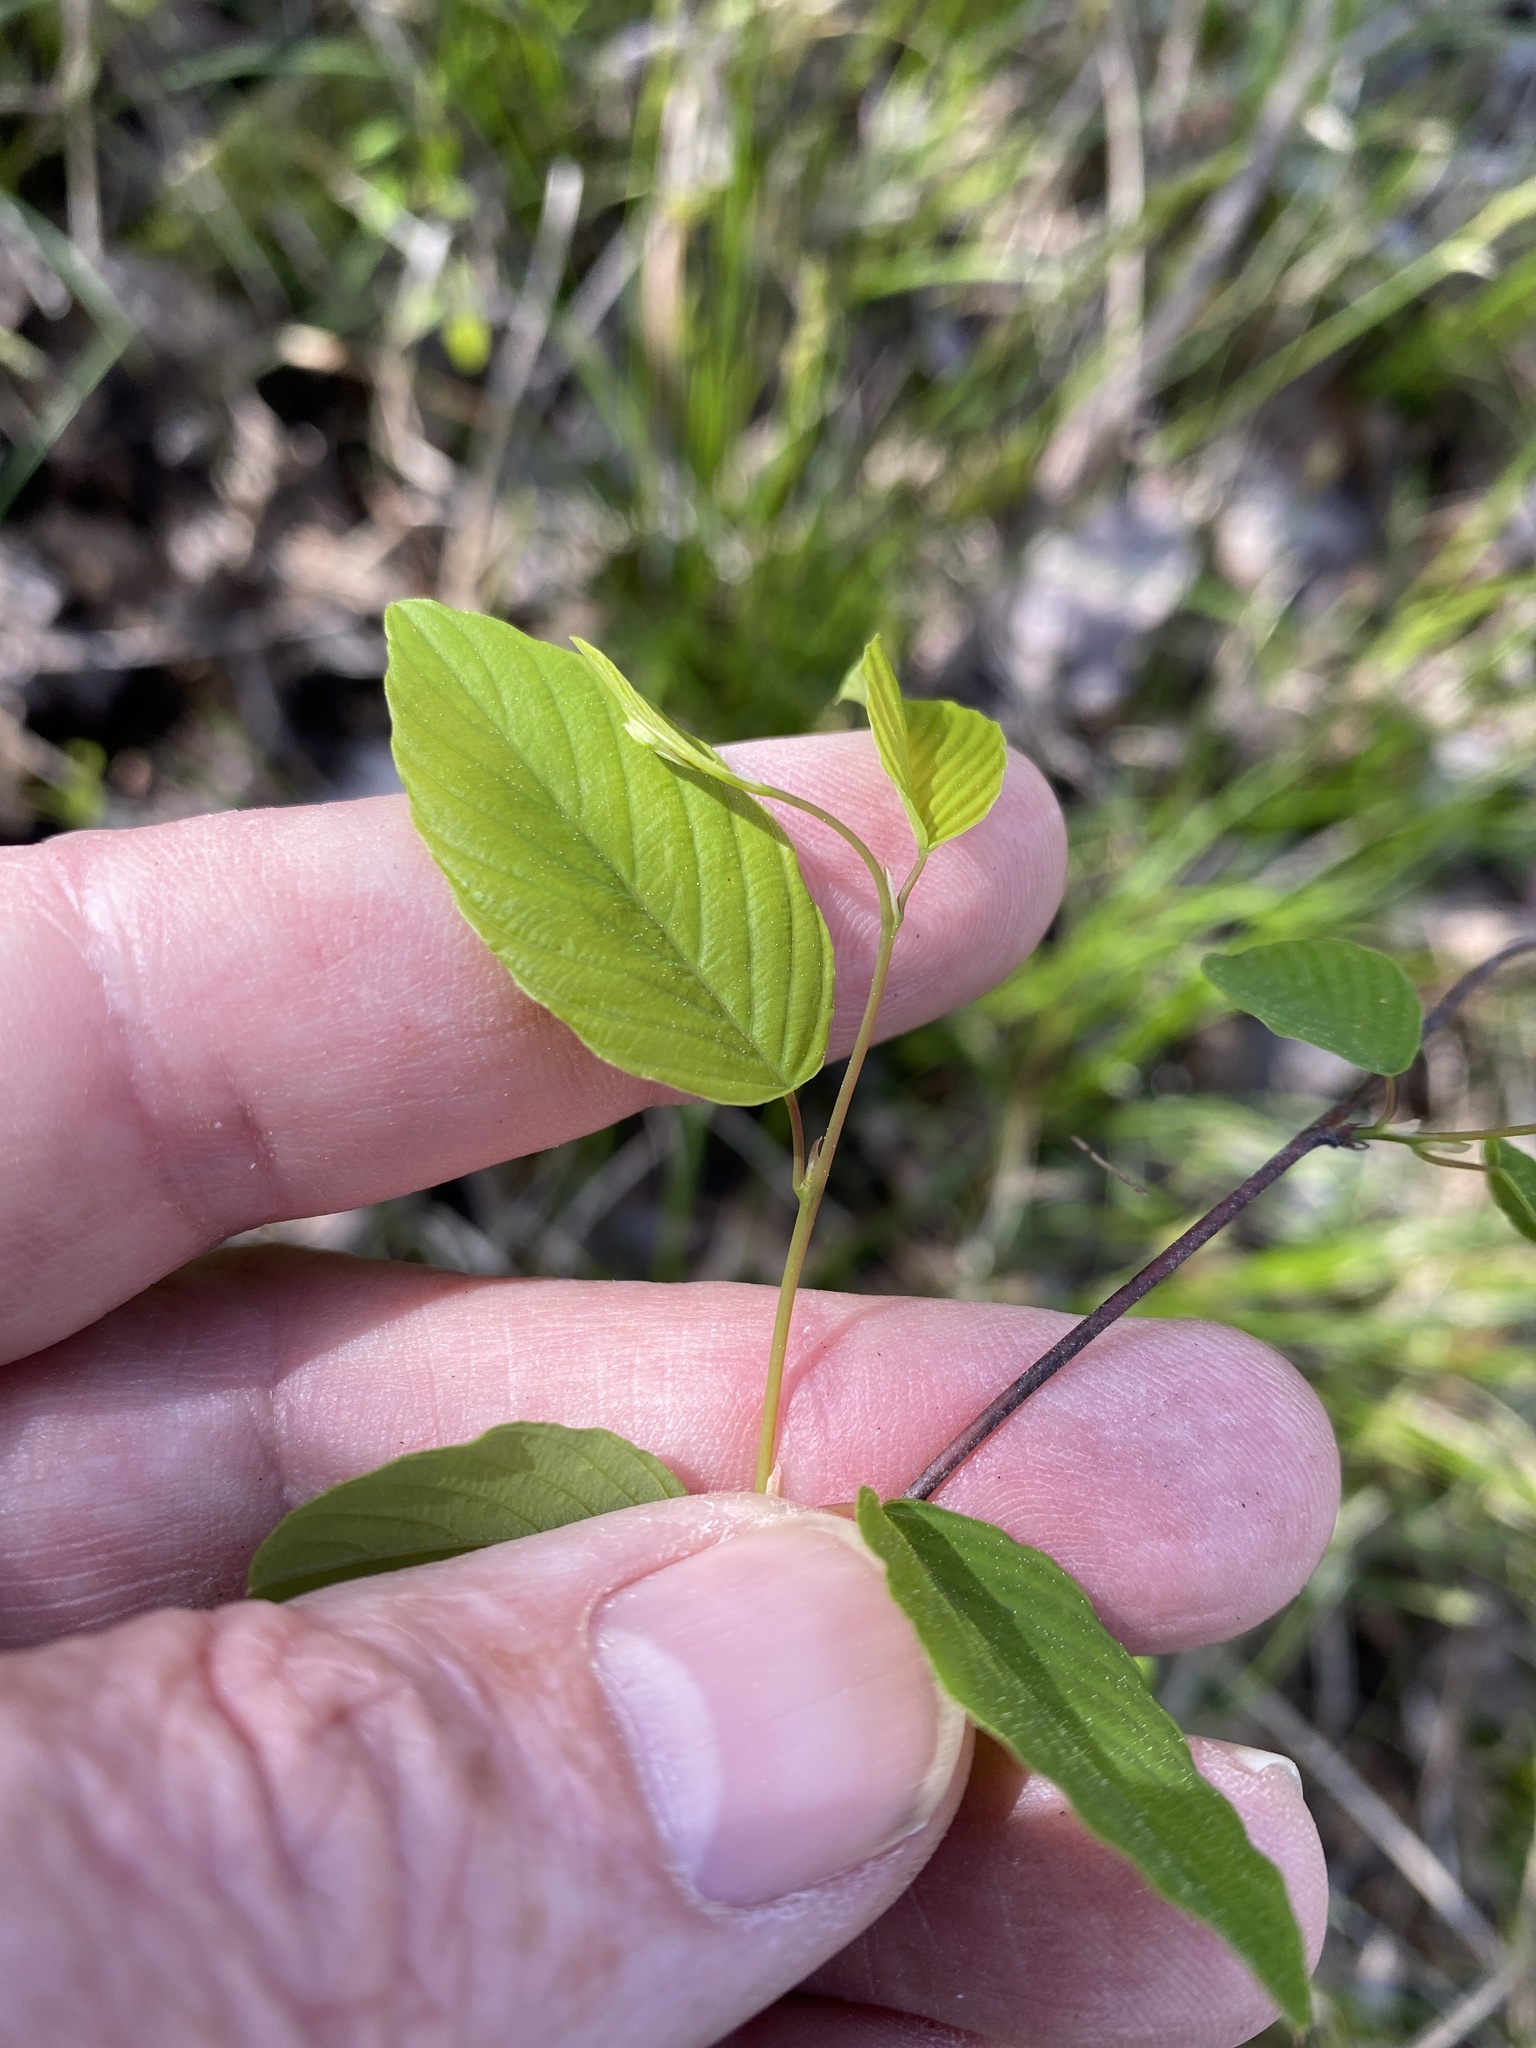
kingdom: Plantae
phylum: Tracheophyta
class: Magnoliopsida
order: Rosales
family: Rhamnaceae
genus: Berchemia
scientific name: Berchemia scandens
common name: Supplejack
